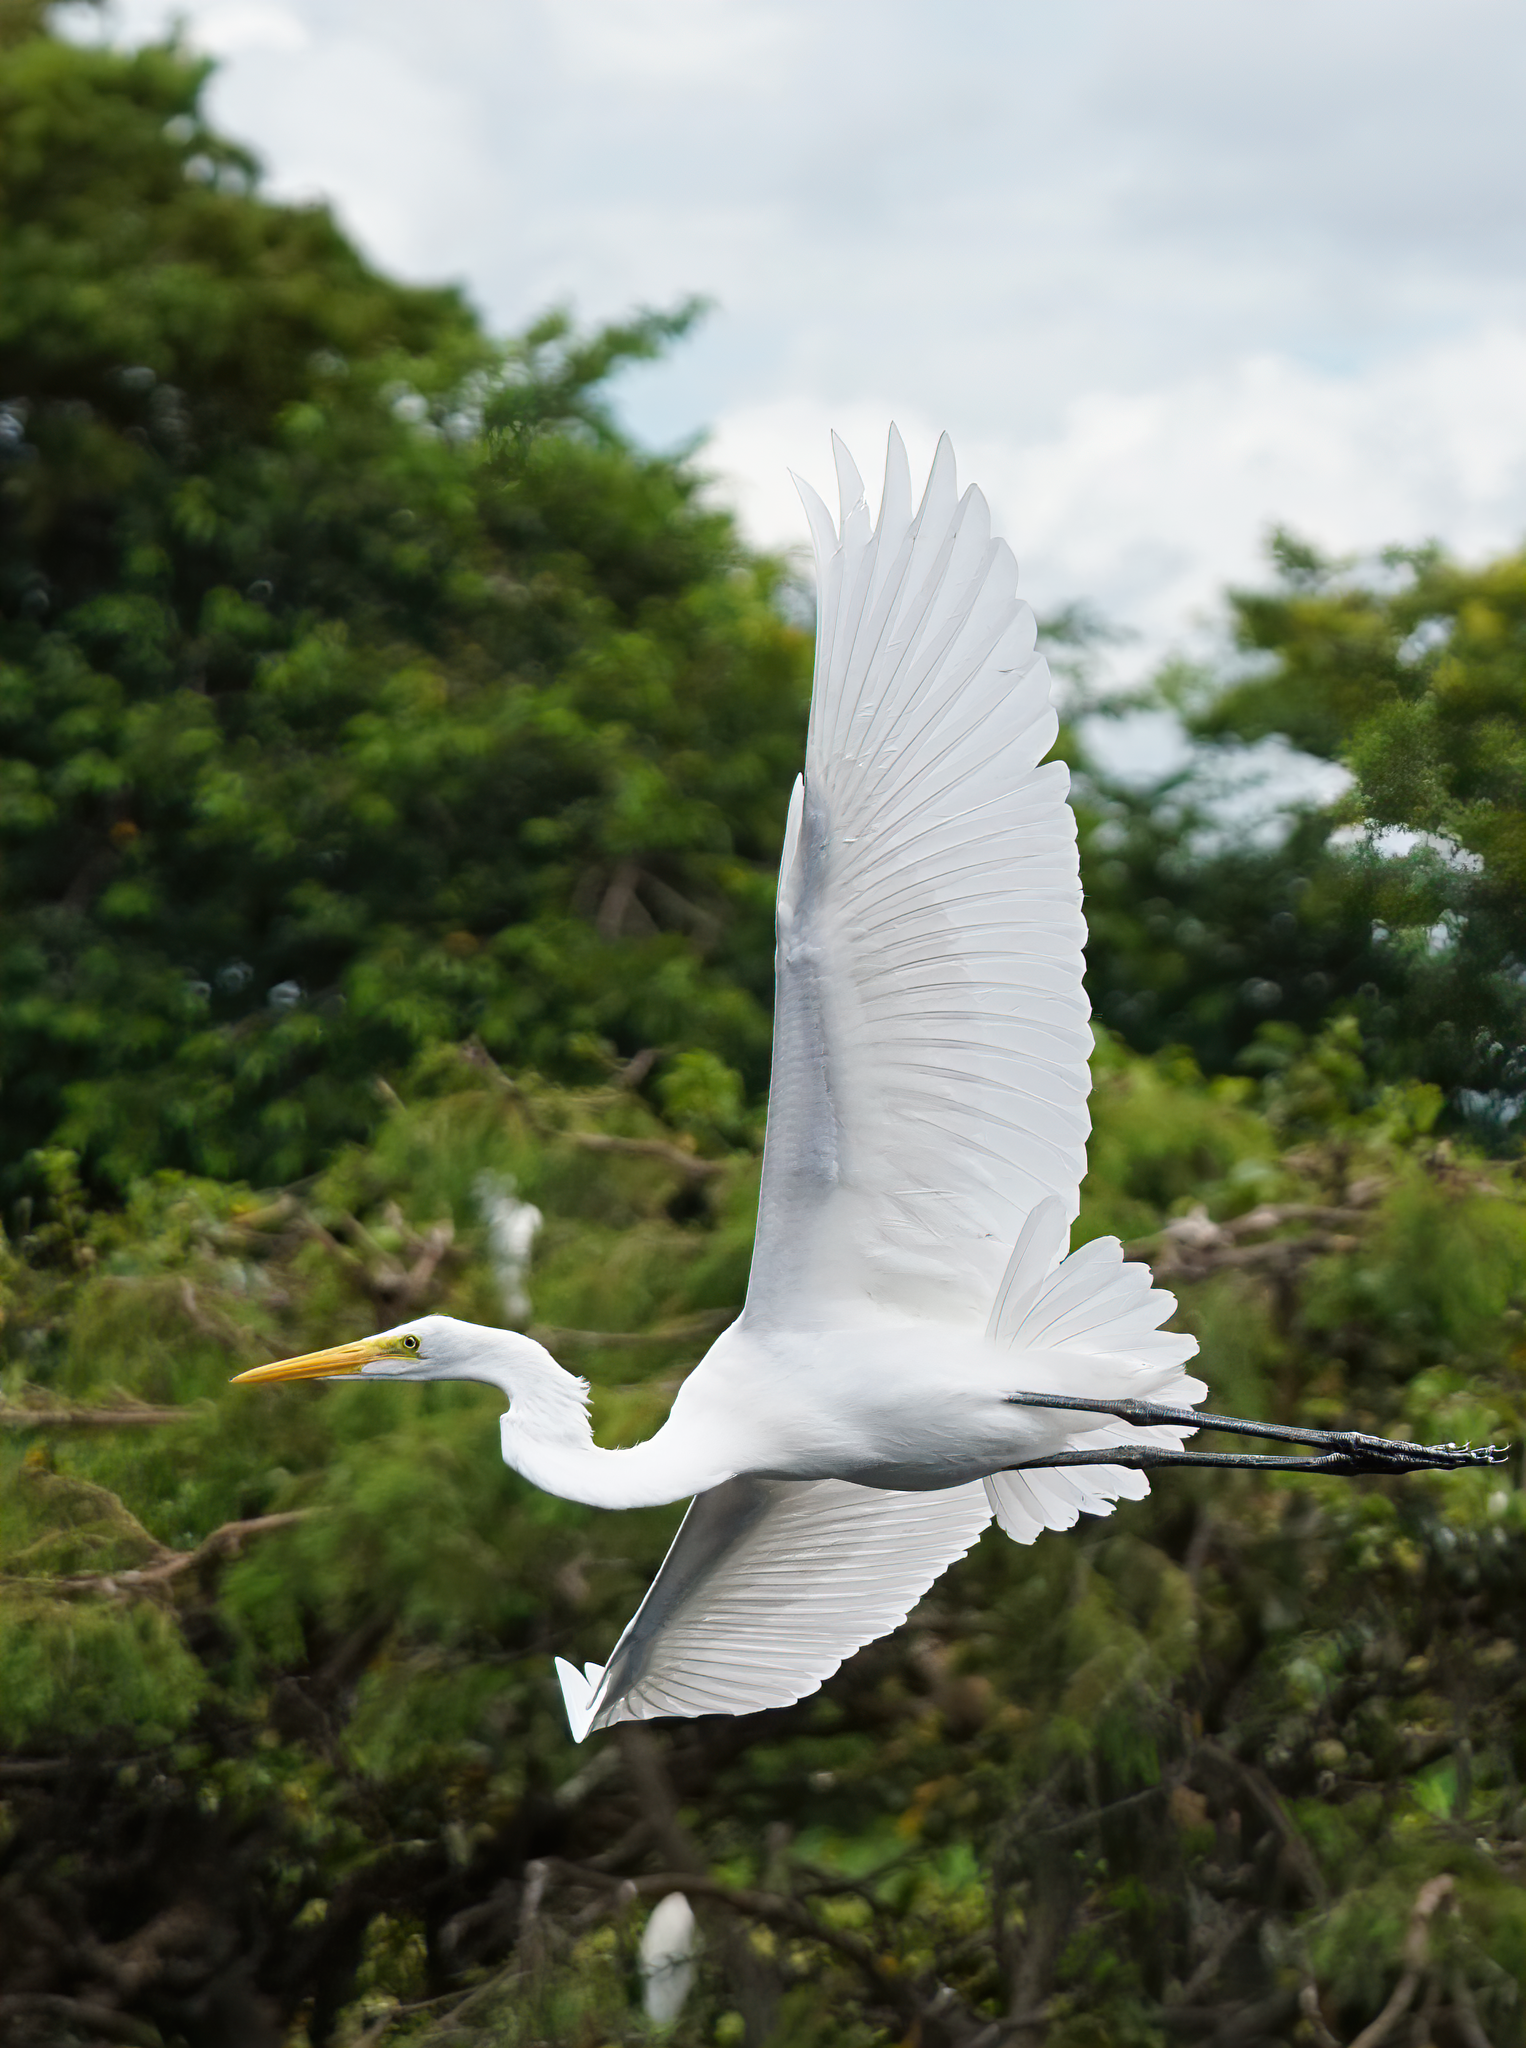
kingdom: Animalia
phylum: Chordata
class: Aves
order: Pelecaniformes
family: Ardeidae
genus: Ardea
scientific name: Ardea alba
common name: Great egret
